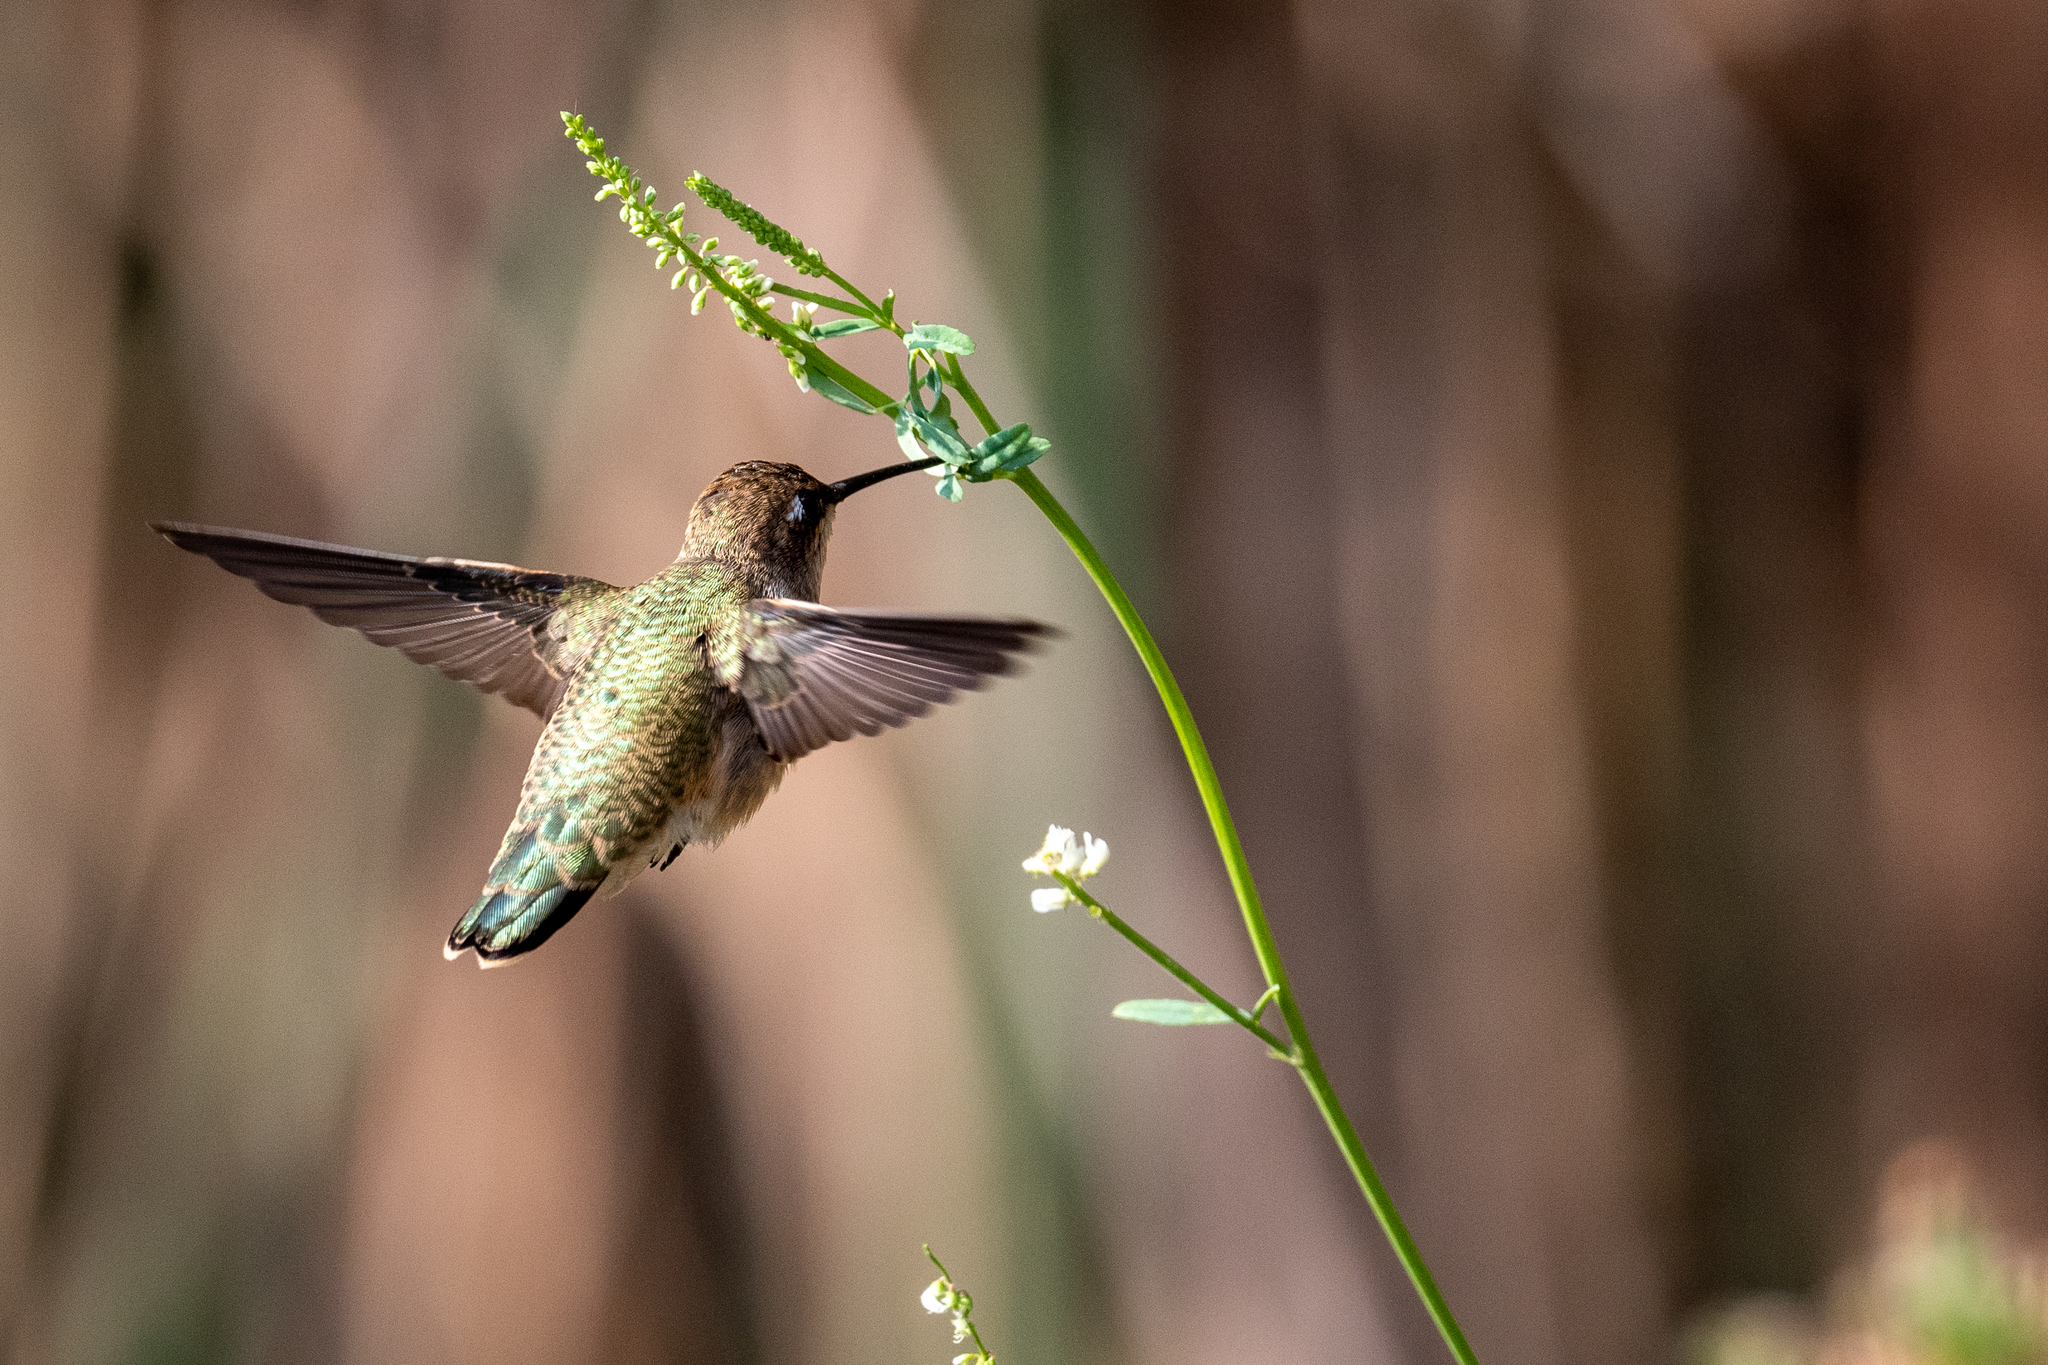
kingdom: Animalia
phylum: Chordata
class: Aves
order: Apodiformes
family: Trochilidae
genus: Archilochus
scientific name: Archilochus alexandri
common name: Black-chinned hummingbird
